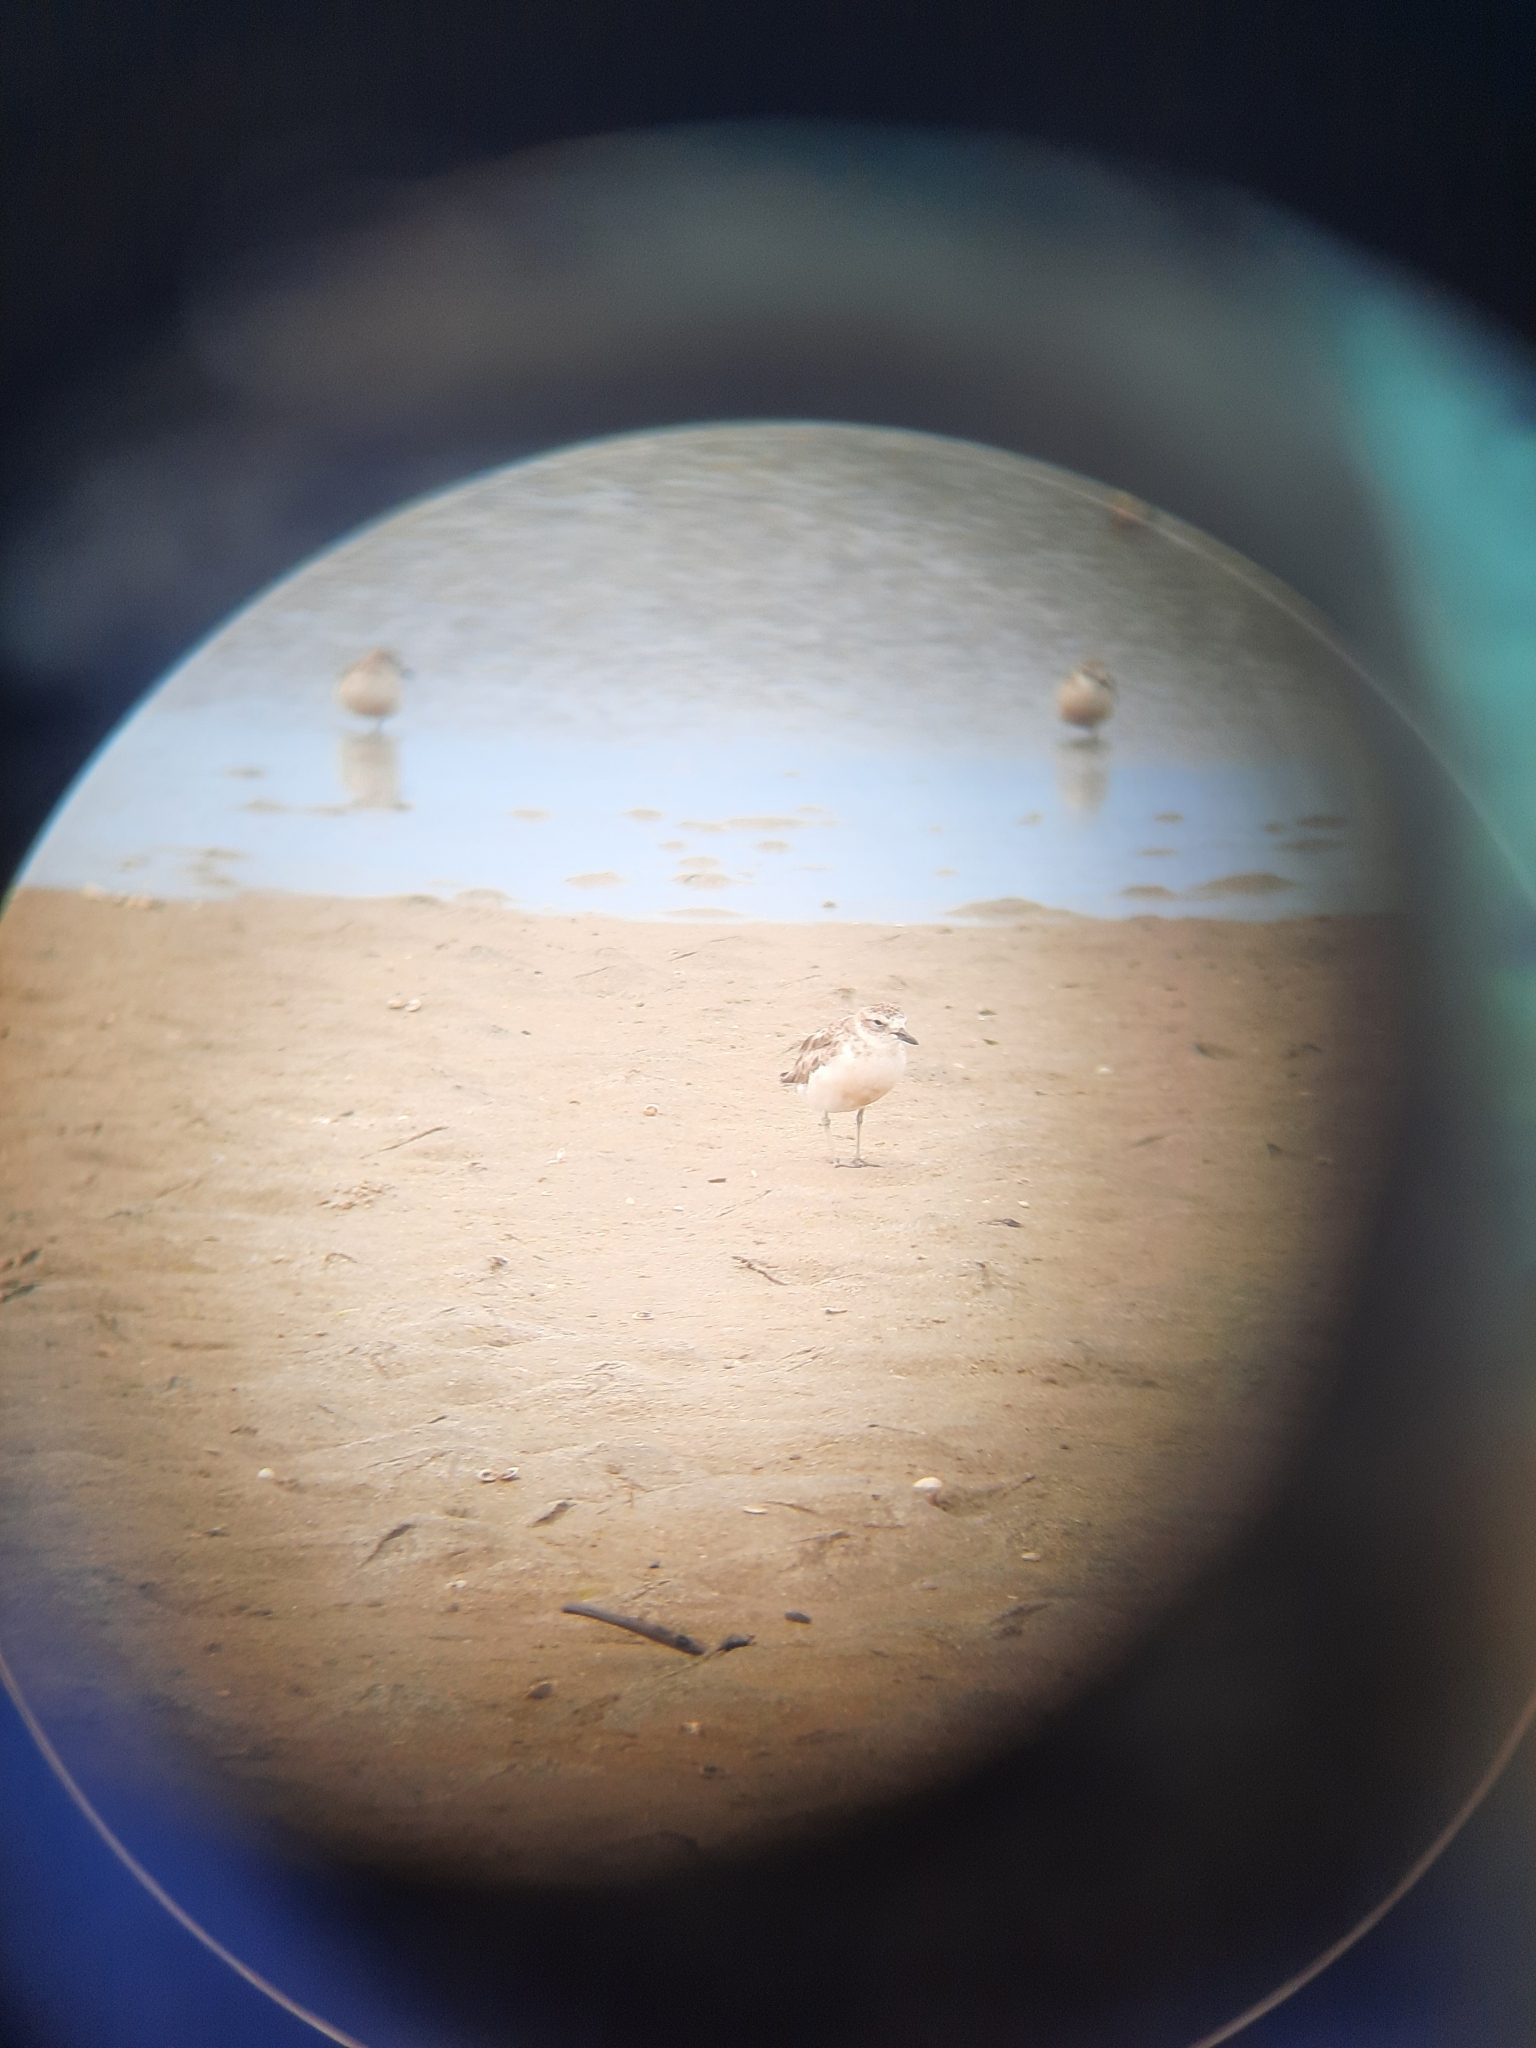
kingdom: Animalia
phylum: Chordata
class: Aves
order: Charadriiformes
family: Charadriidae
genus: Anarhynchus
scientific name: Anarhynchus
